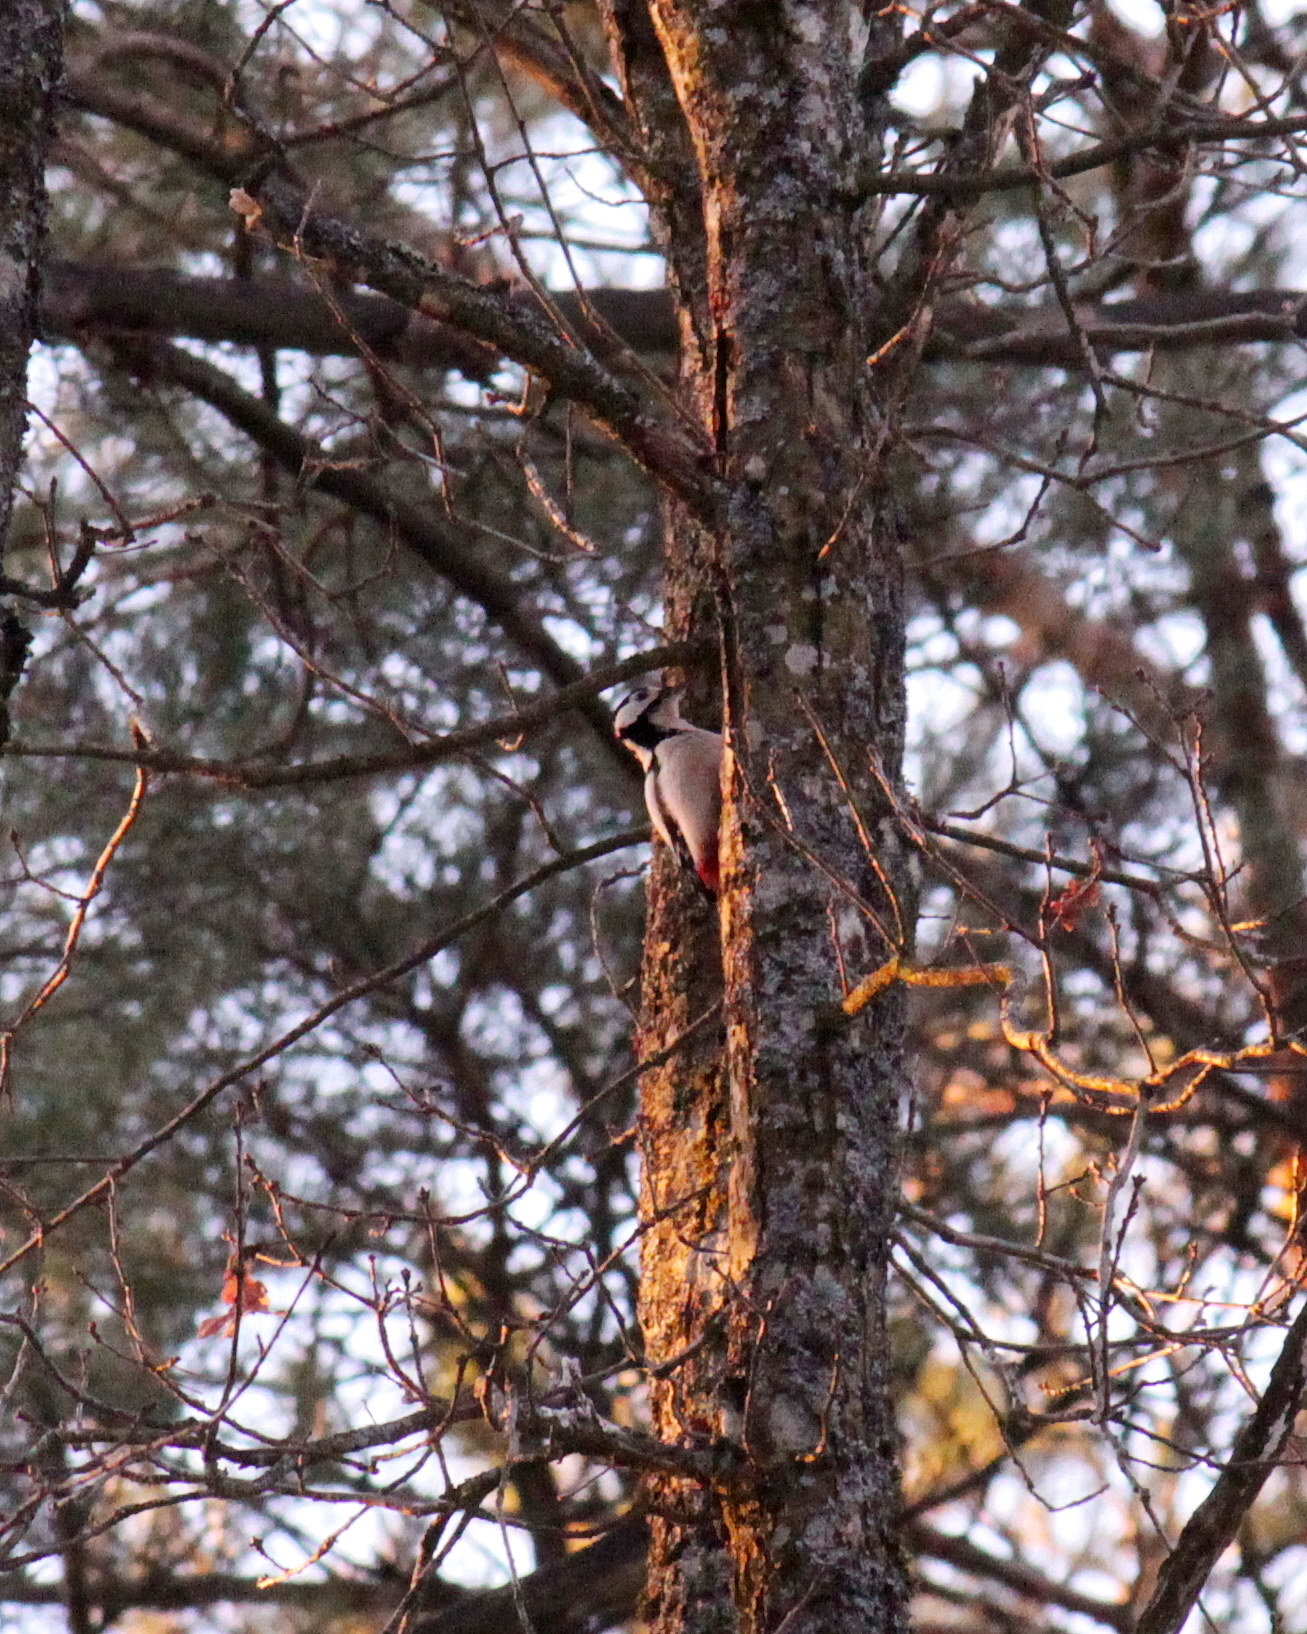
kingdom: Animalia
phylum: Chordata
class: Aves
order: Piciformes
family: Picidae
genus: Dendrocopos
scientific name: Dendrocopos major
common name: Great spotted woodpecker
